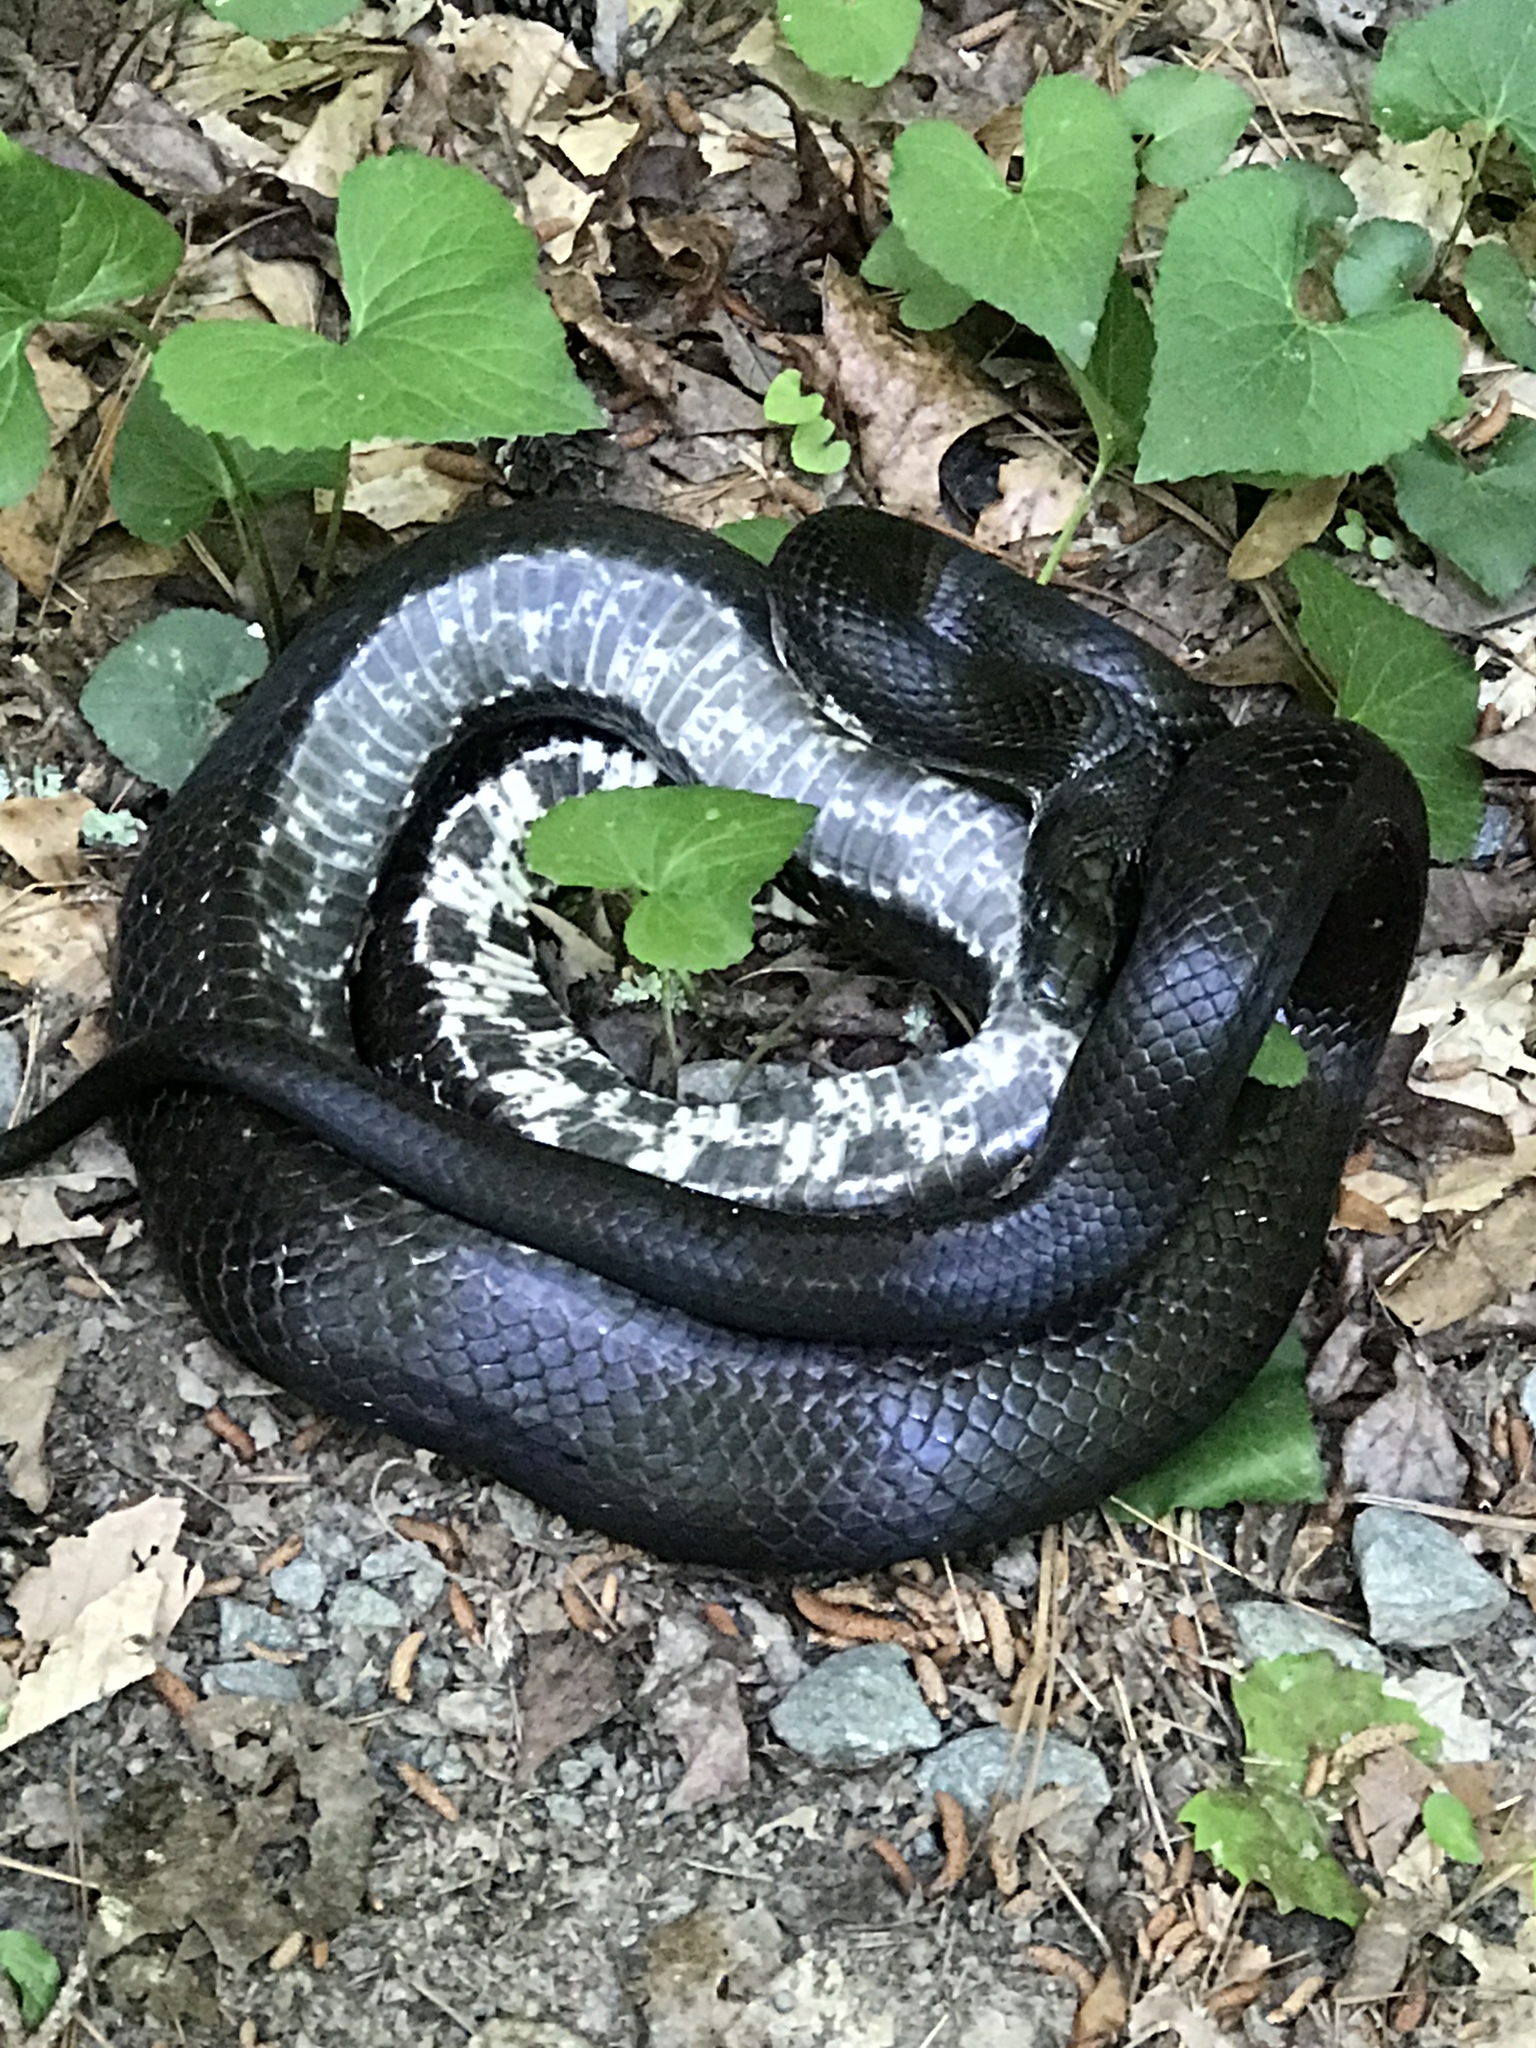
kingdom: Animalia
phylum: Chordata
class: Squamata
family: Colubridae
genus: Pantherophis
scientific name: Pantherophis alleghaniensis
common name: Eastern rat snake
